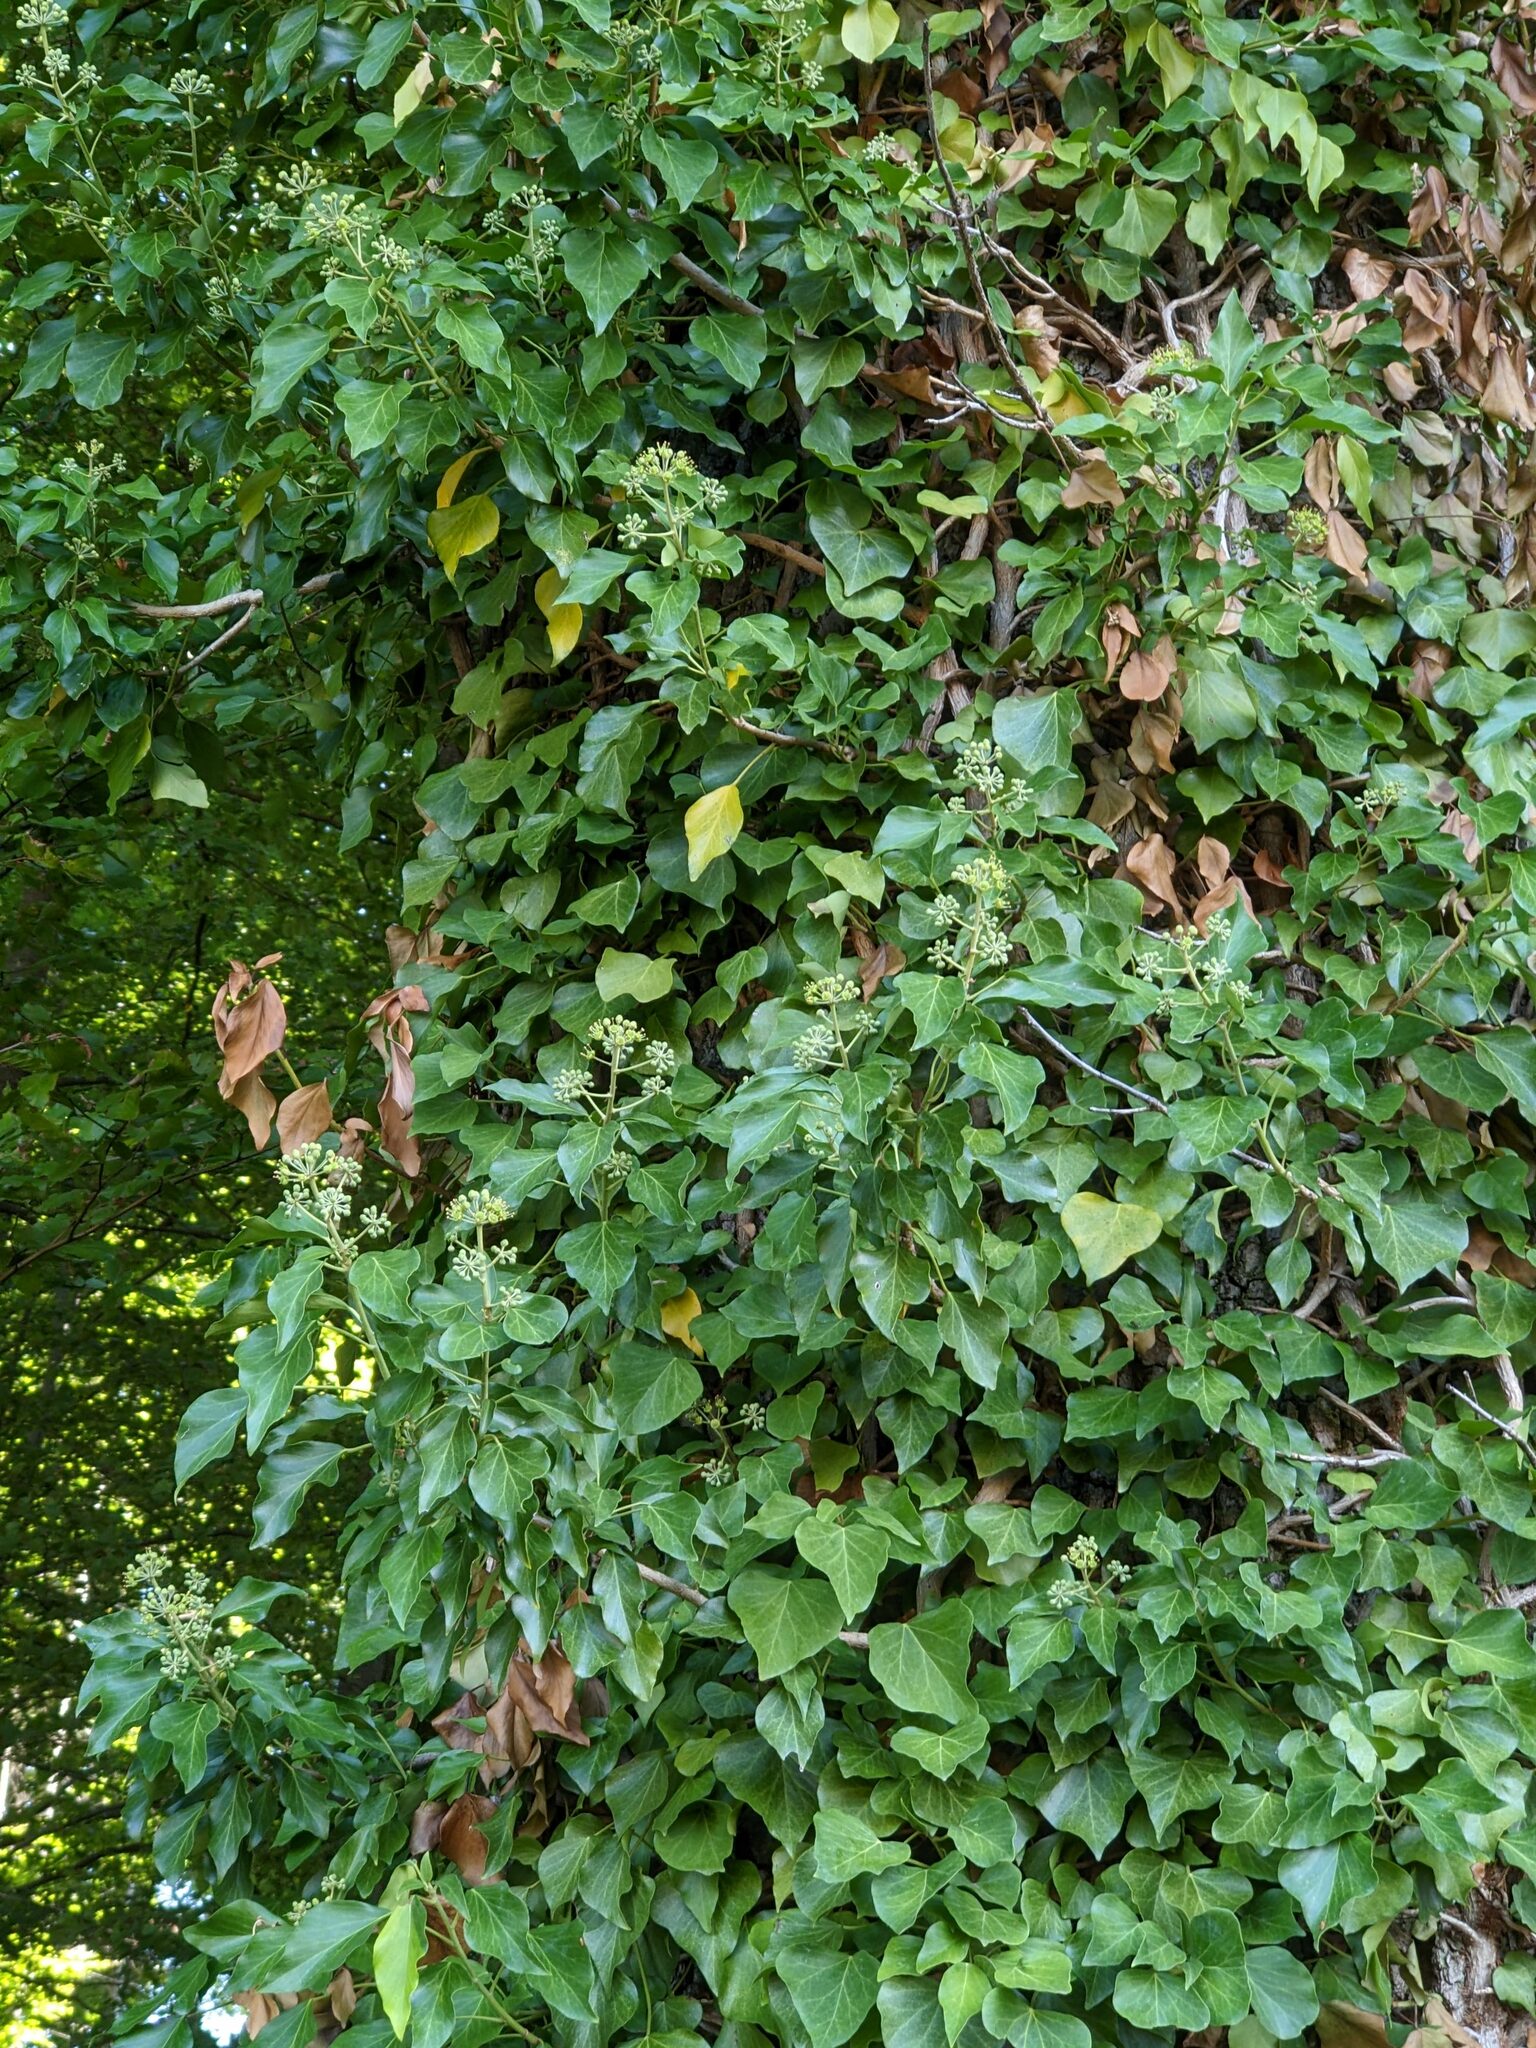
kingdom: Plantae
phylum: Tracheophyta
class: Magnoliopsida
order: Apiales
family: Araliaceae
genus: Hedera
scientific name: Hedera helix
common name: Ivy
